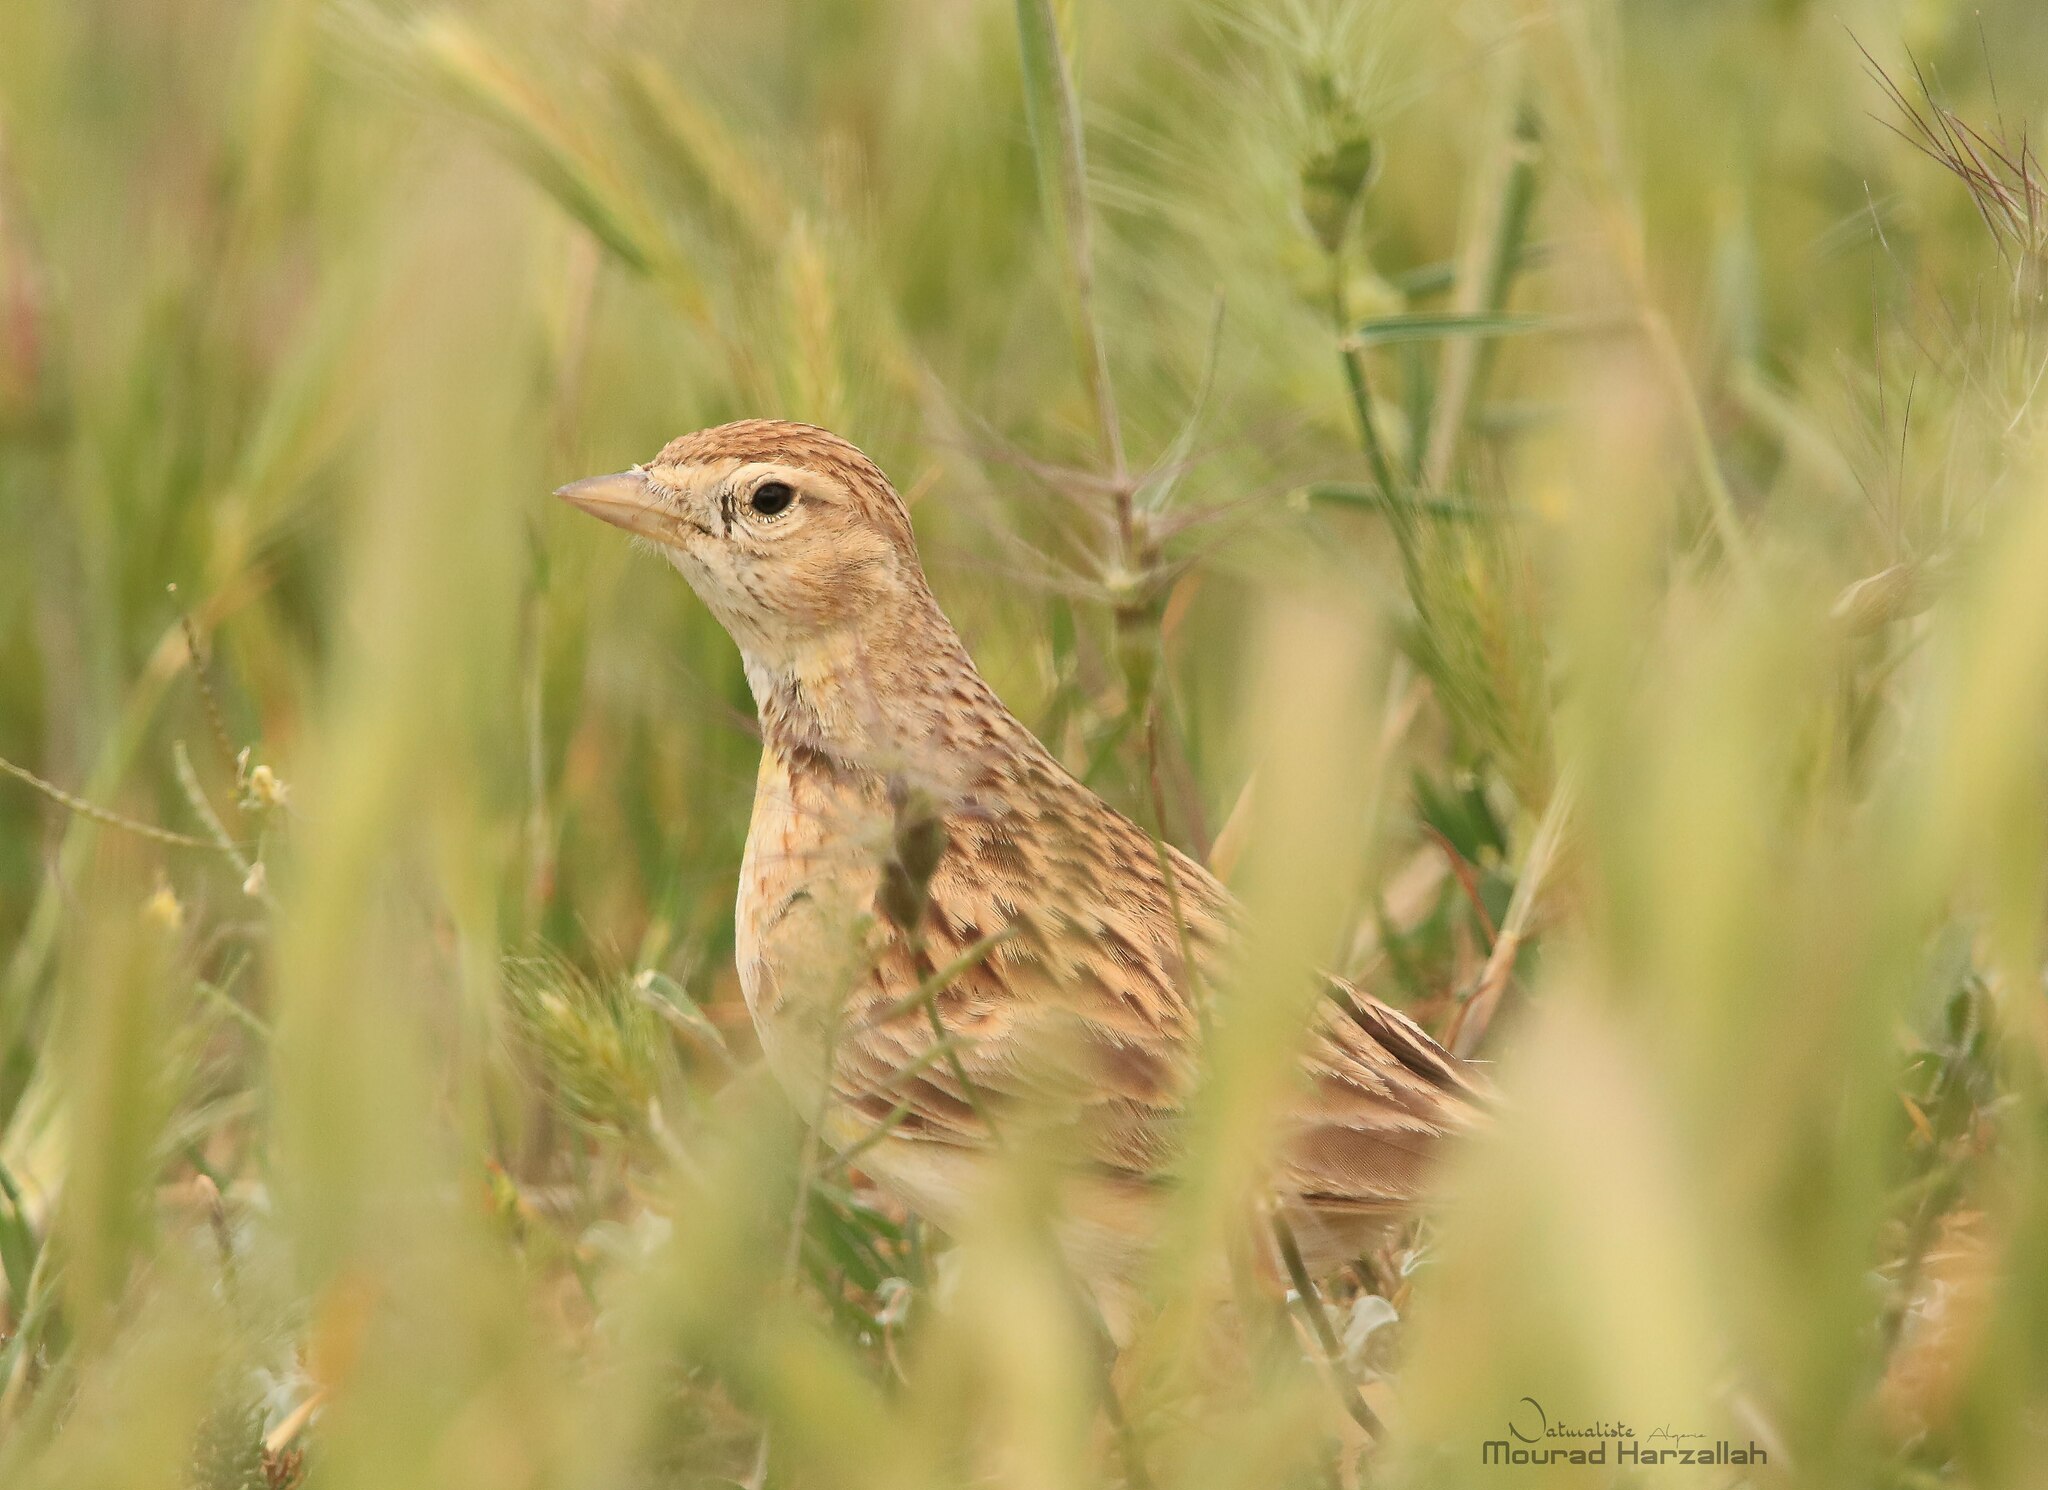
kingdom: Animalia
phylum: Chordata
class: Aves
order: Passeriformes
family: Alaudidae
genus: Calandrella
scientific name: Calandrella brachydactyla
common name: Greater short-toed lark
